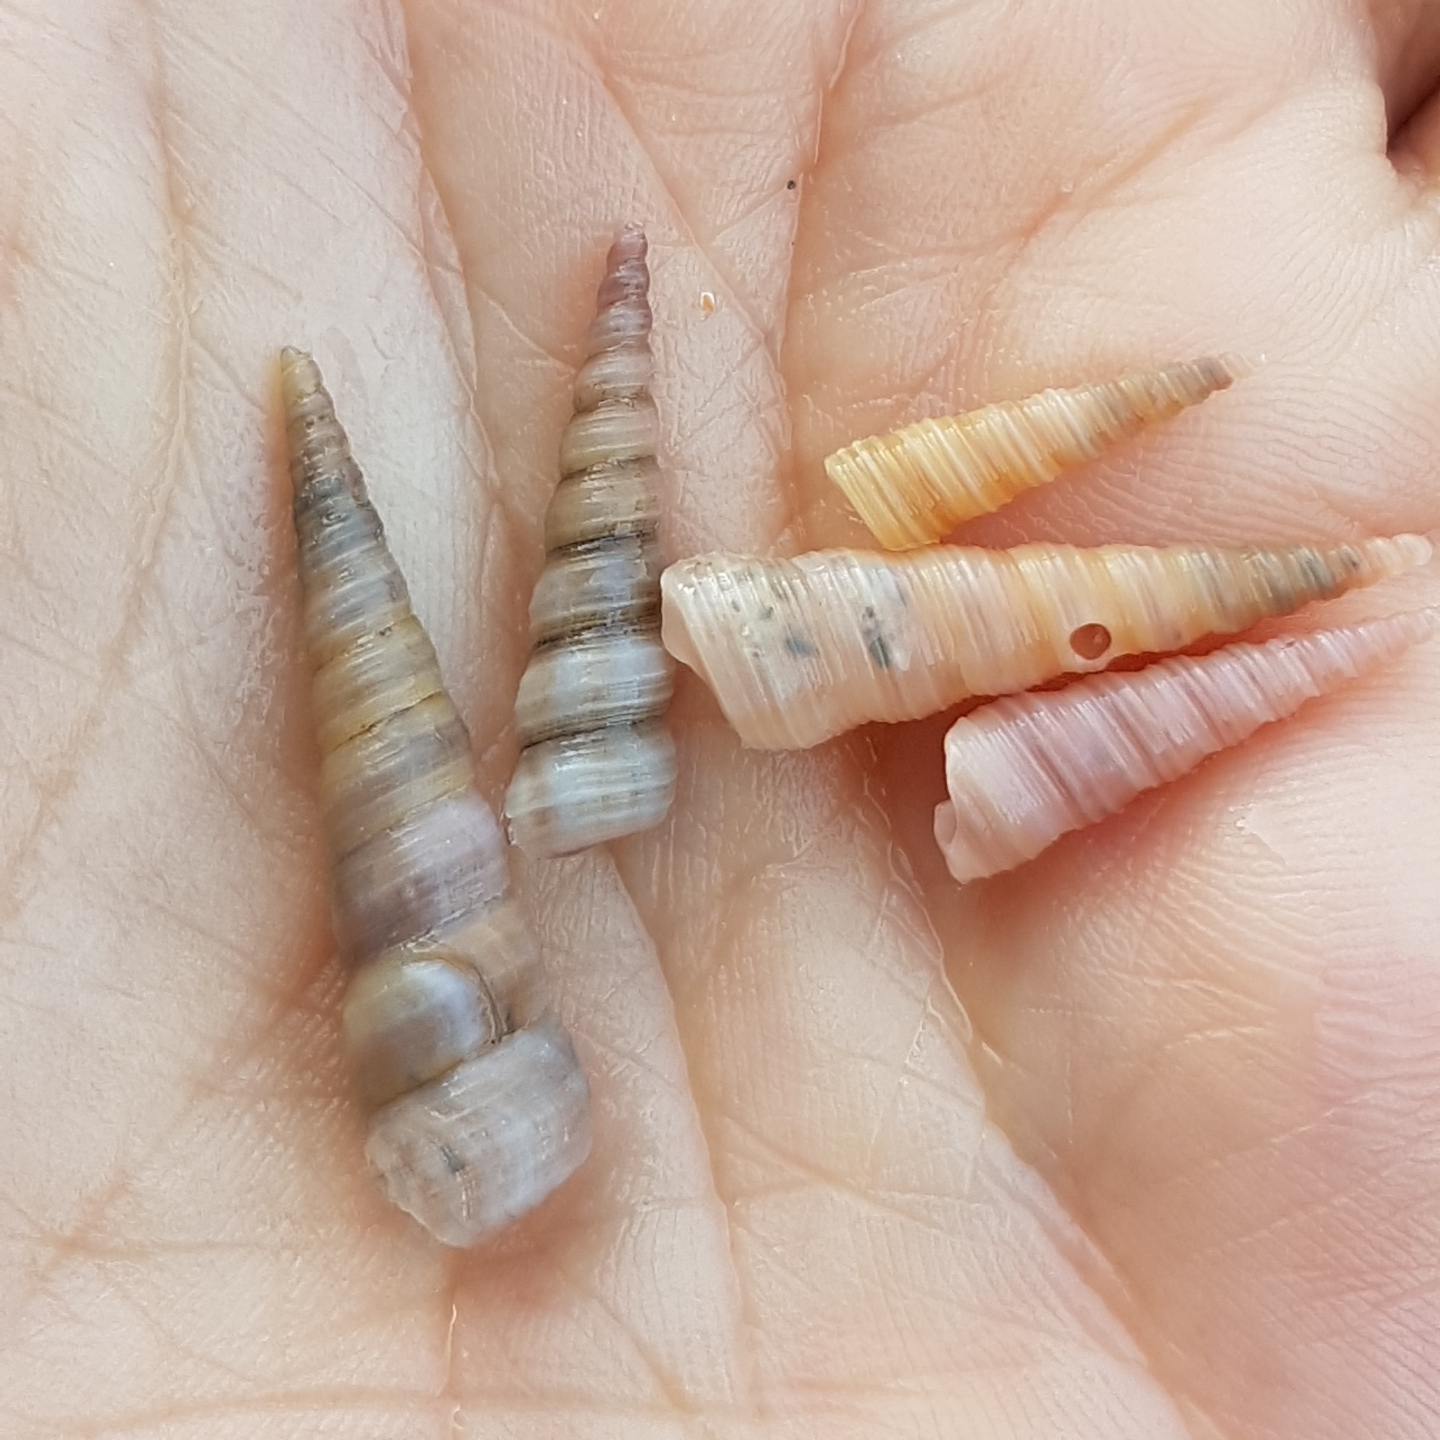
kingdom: Animalia
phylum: Mollusca
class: Gastropoda
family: Turritellidae
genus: Turritellinella
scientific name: Turritellinella tricarinata
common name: Auger shell
